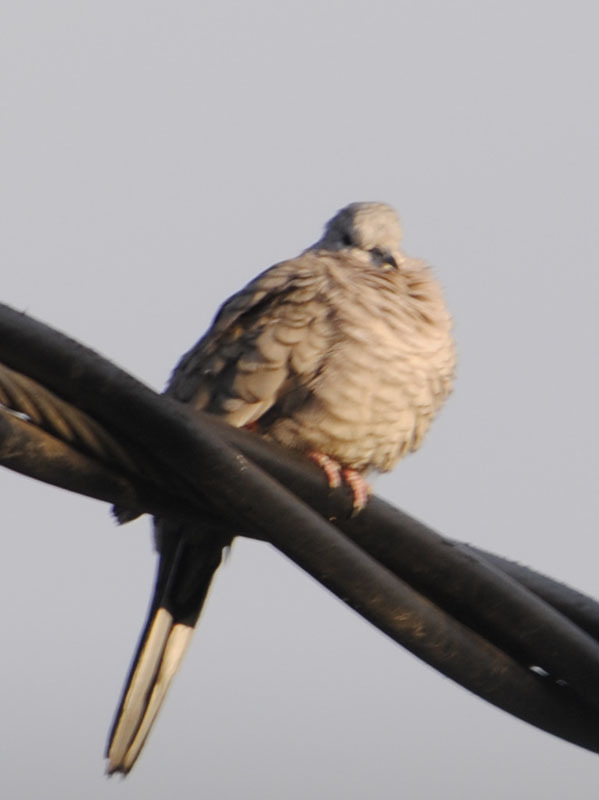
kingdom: Animalia
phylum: Chordata
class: Aves
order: Columbiformes
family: Columbidae
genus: Columbina
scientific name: Columbina inca
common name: Inca dove
